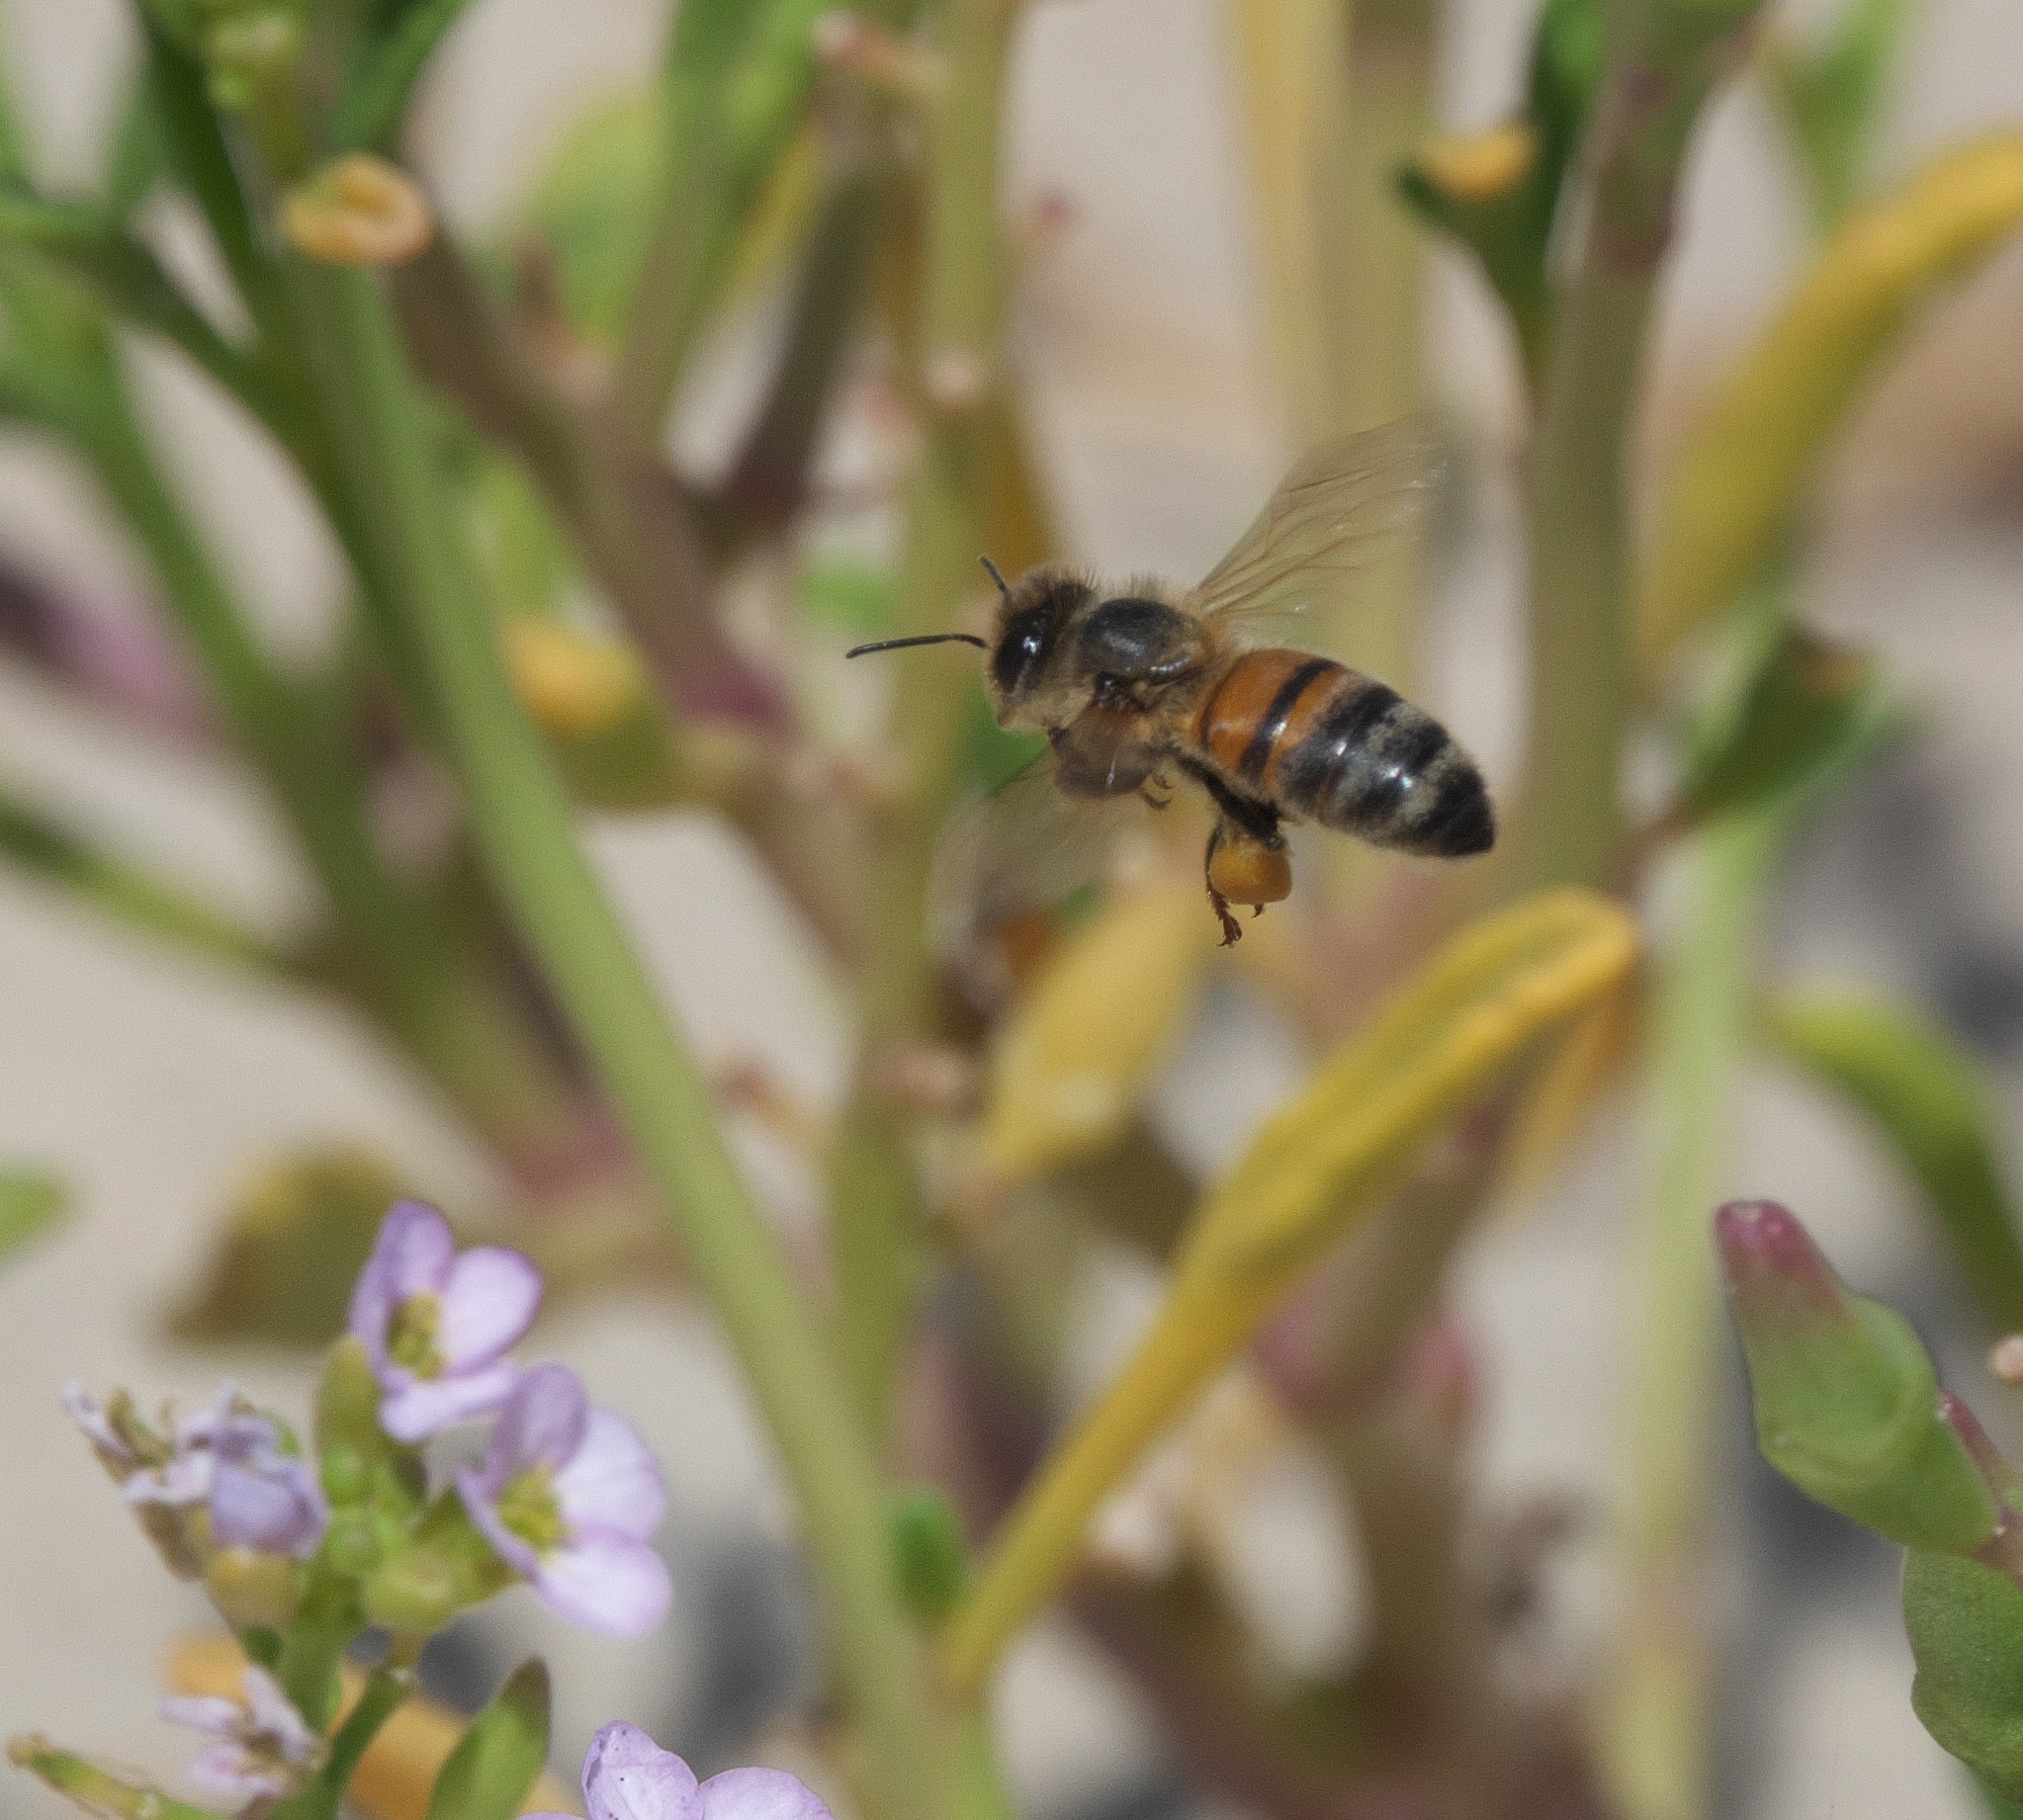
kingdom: Animalia
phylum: Arthropoda
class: Insecta
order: Hymenoptera
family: Apidae
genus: Apis
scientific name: Apis mellifera
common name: Honey bee
